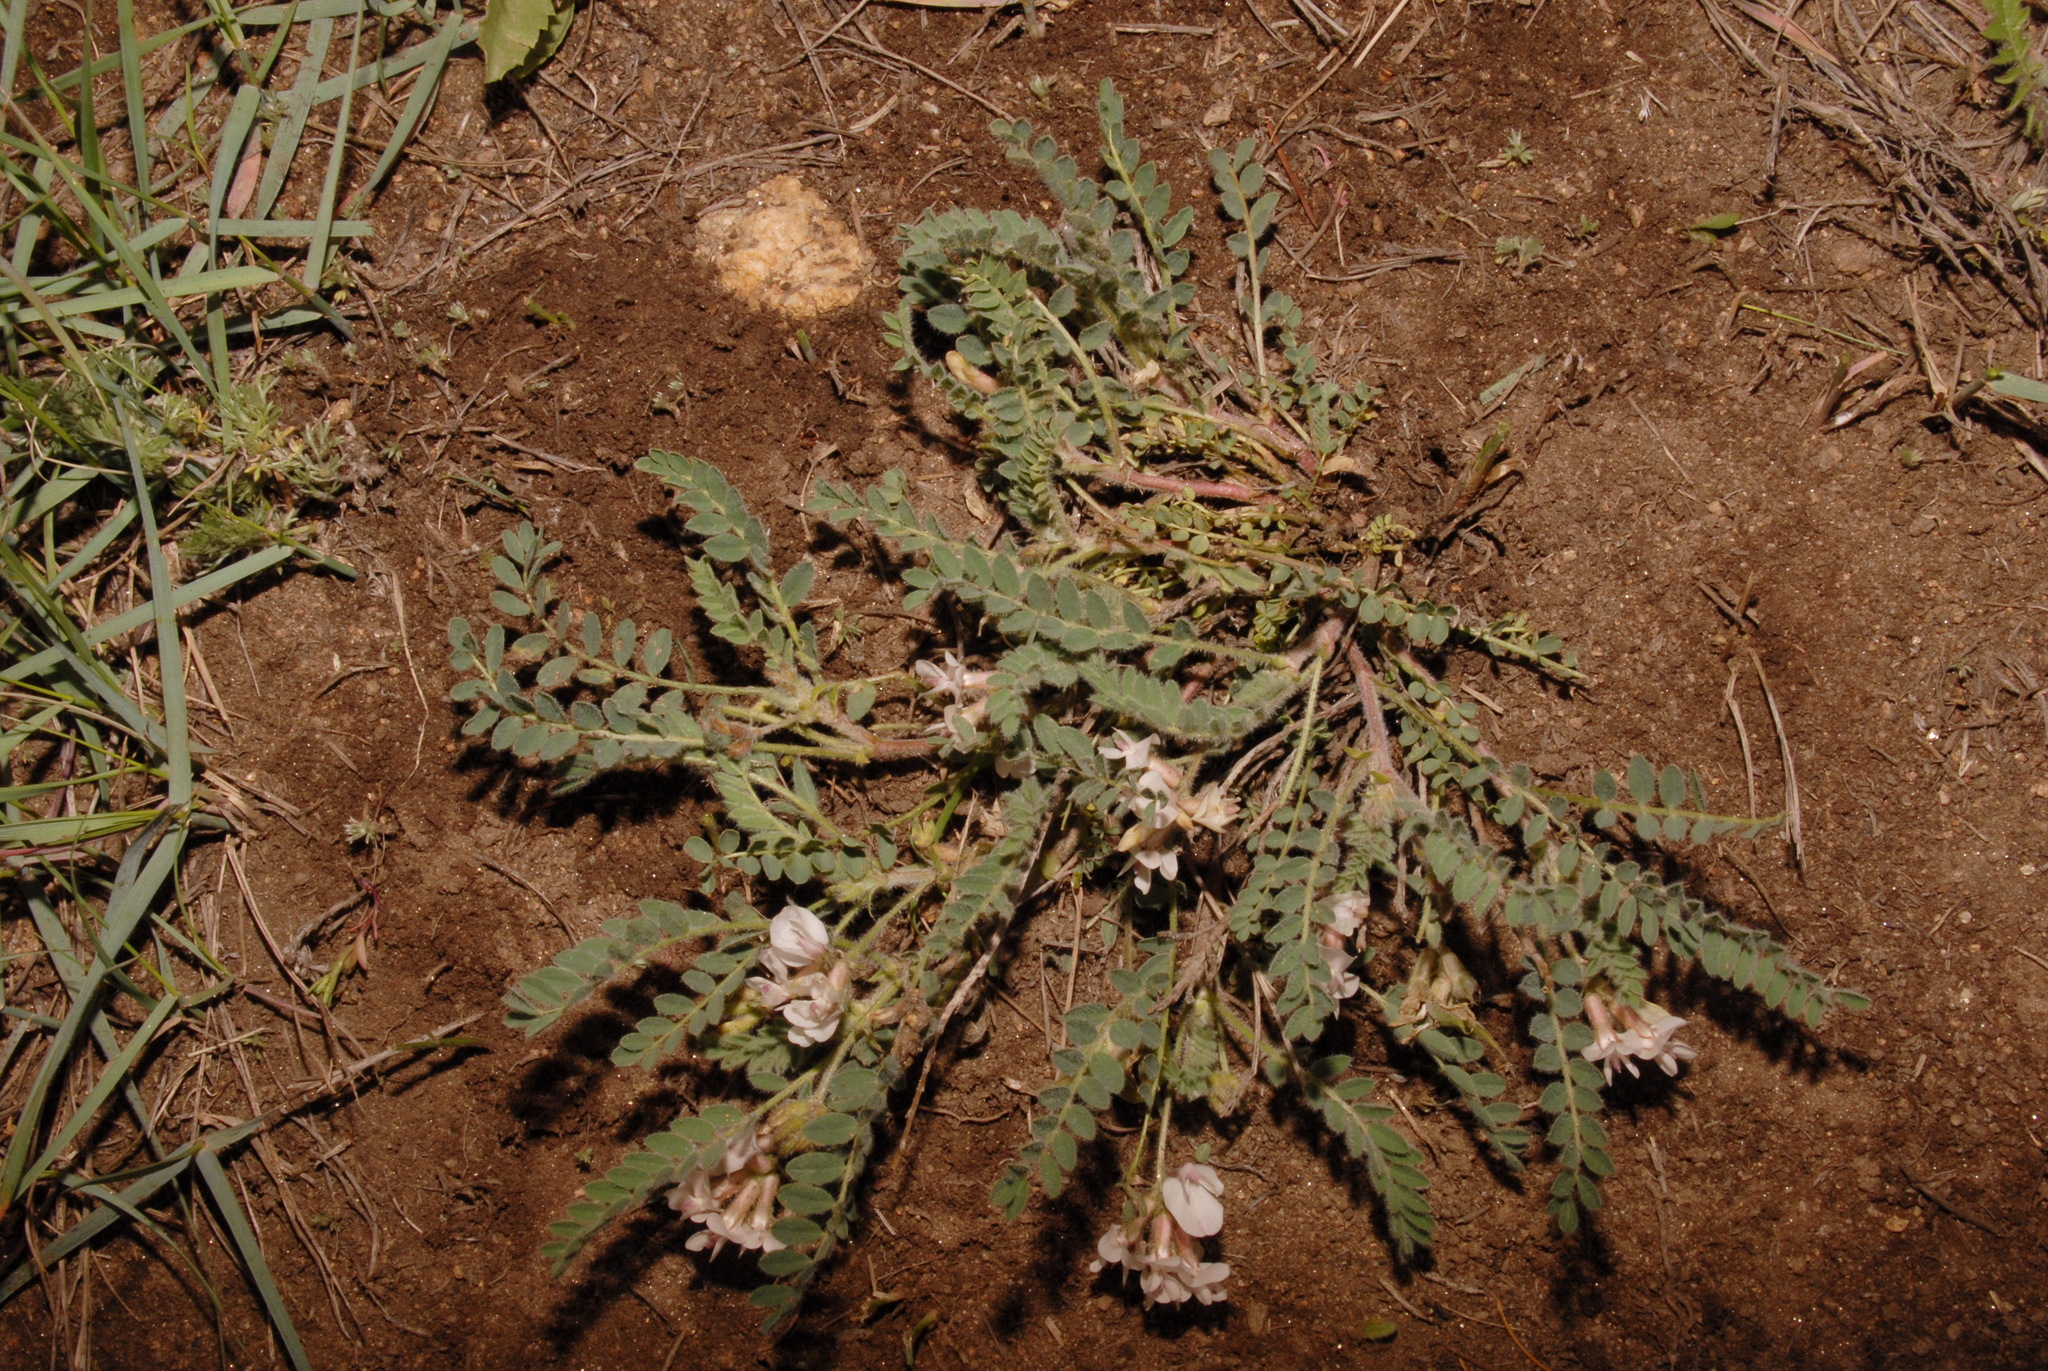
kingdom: Plantae
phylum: Tracheophyta
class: Magnoliopsida
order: Fabales
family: Fabaceae
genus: Astragalus
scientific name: Astragalus parryi
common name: Parry milk-vetch
